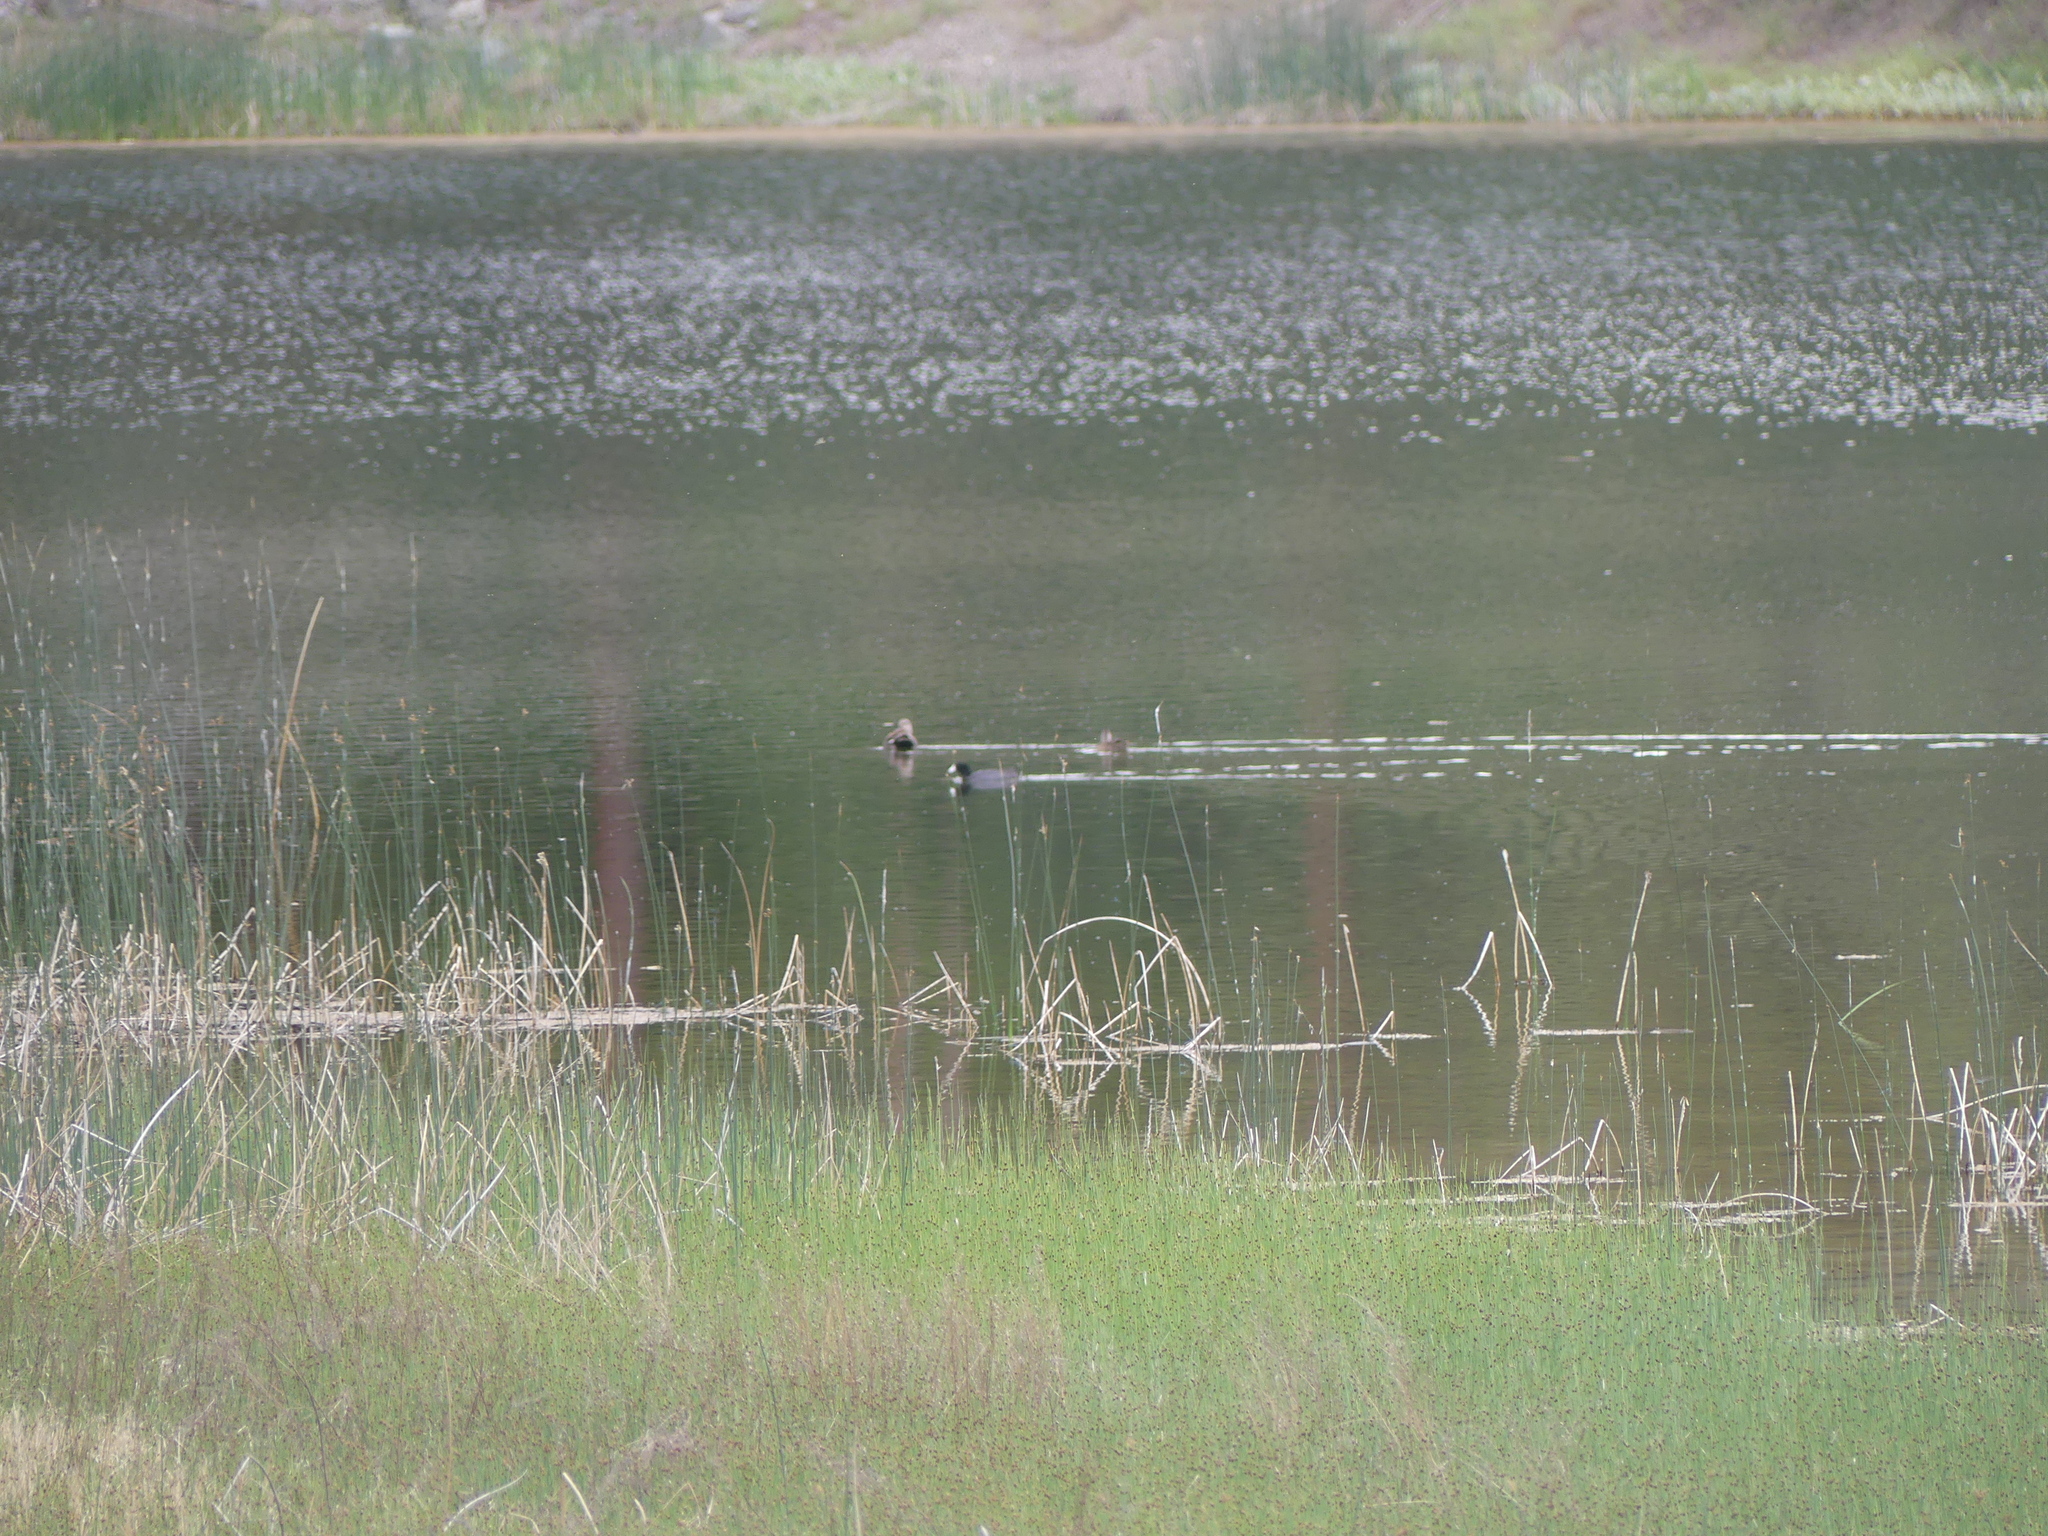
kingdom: Animalia
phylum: Chordata
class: Aves
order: Gruiformes
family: Rallidae
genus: Fulica
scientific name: Fulica americana
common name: American coot
